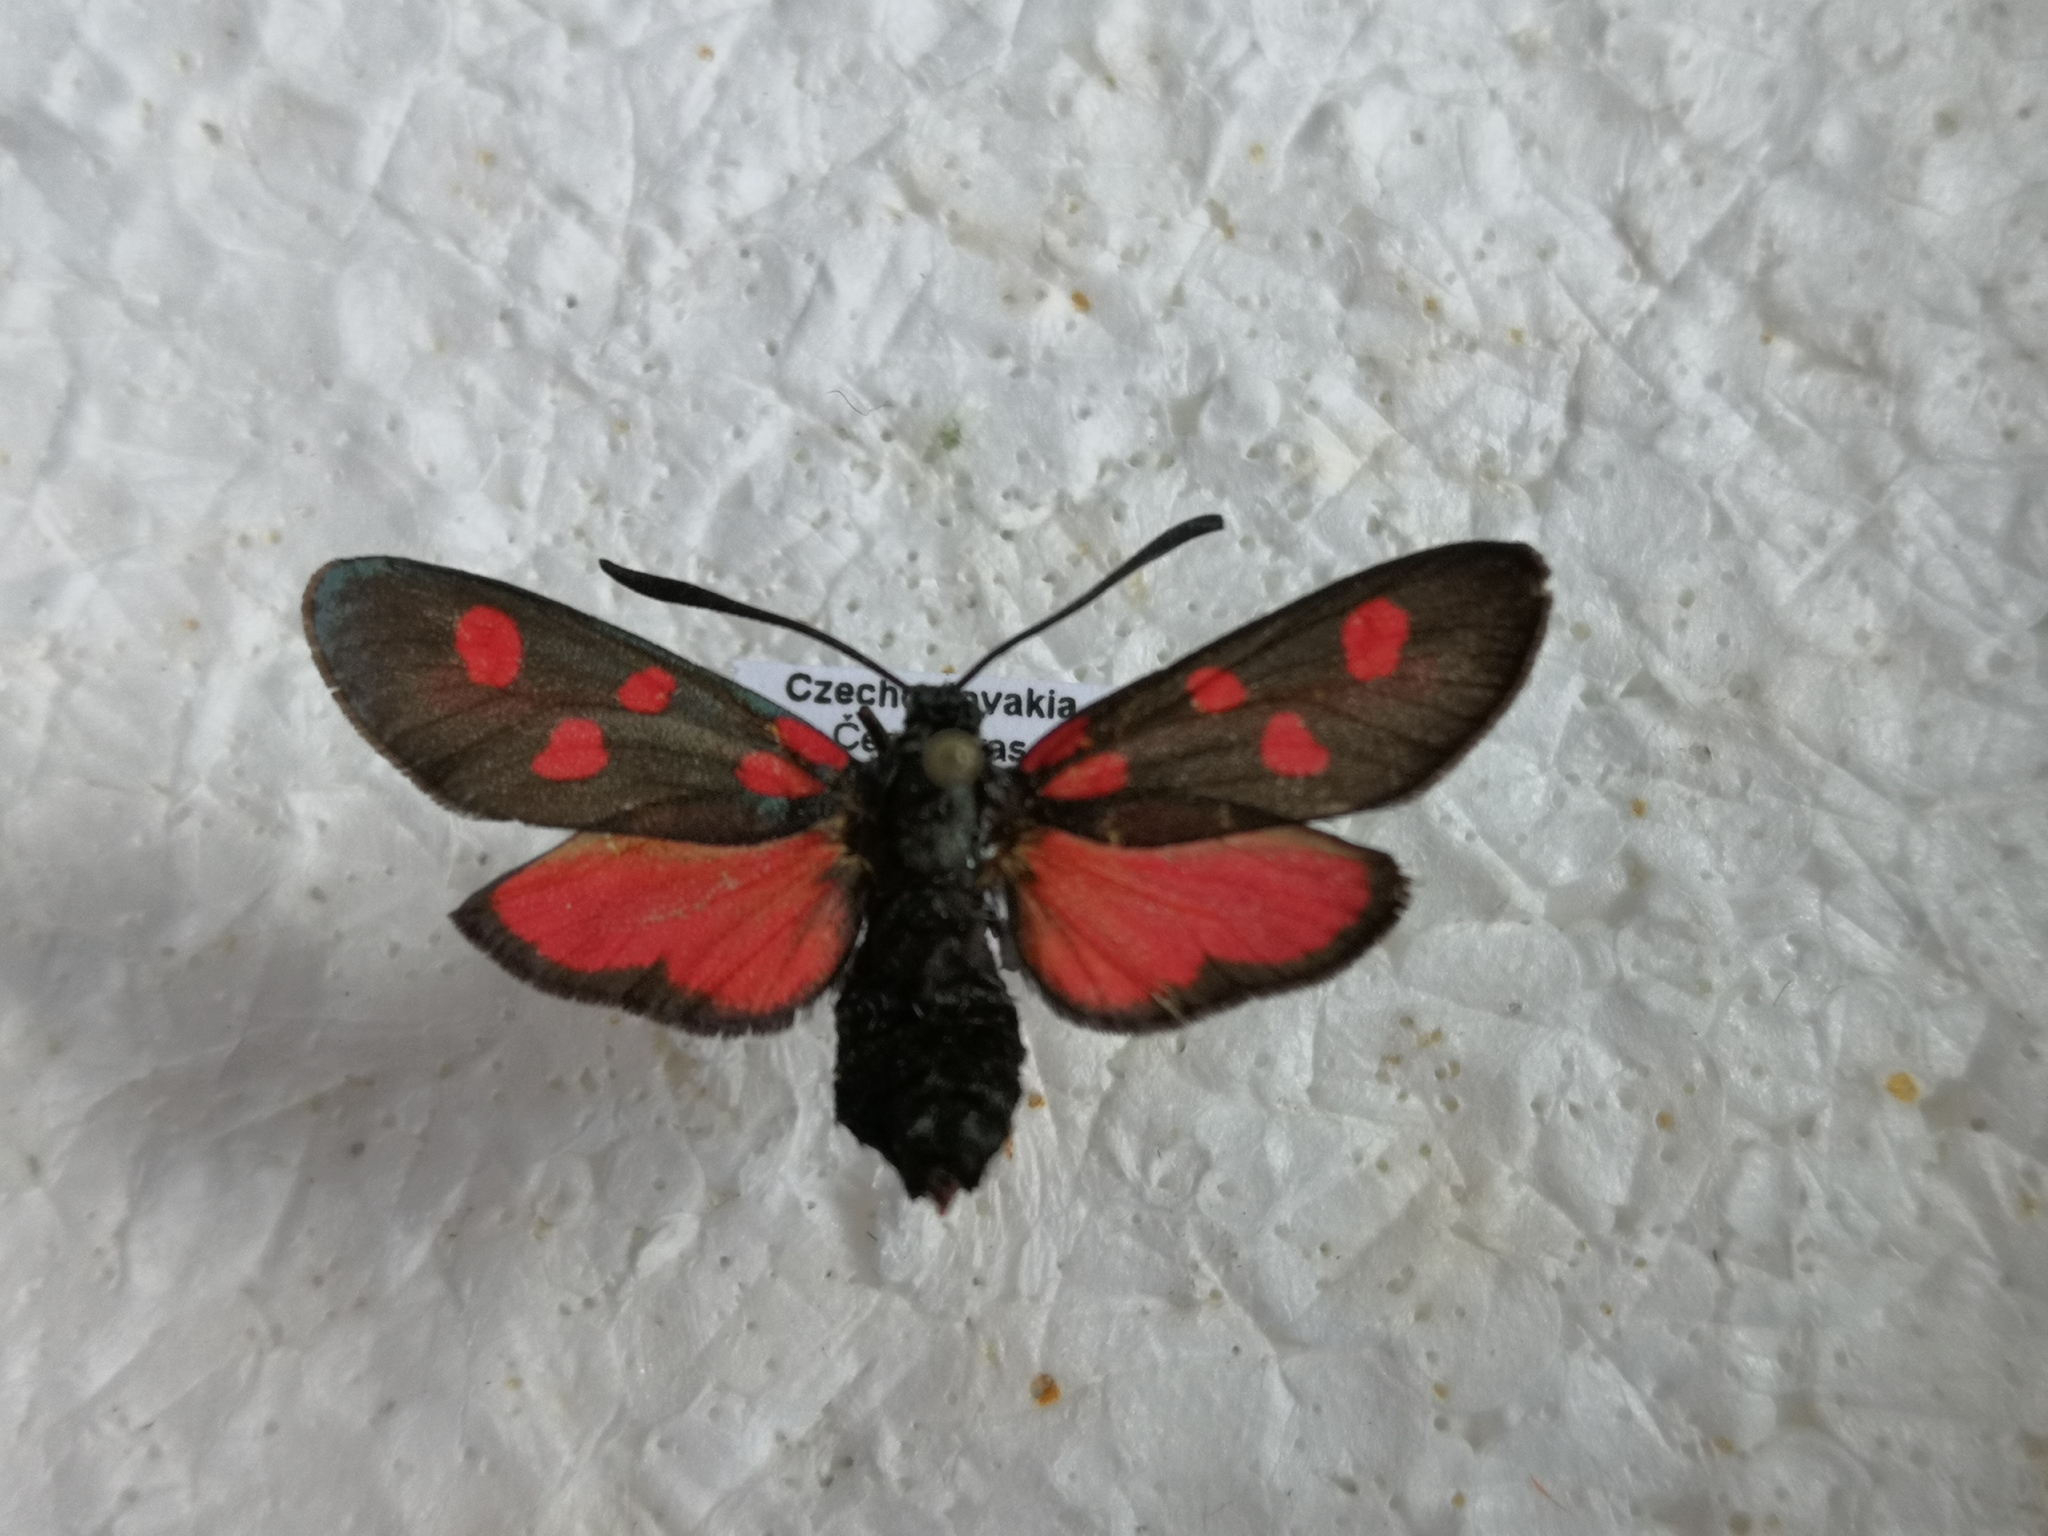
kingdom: Animalia
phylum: Arthropoda
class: Insecta
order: Lepidoptera
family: Zygaenidae
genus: Zygaena
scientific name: Zygaena angelicae
